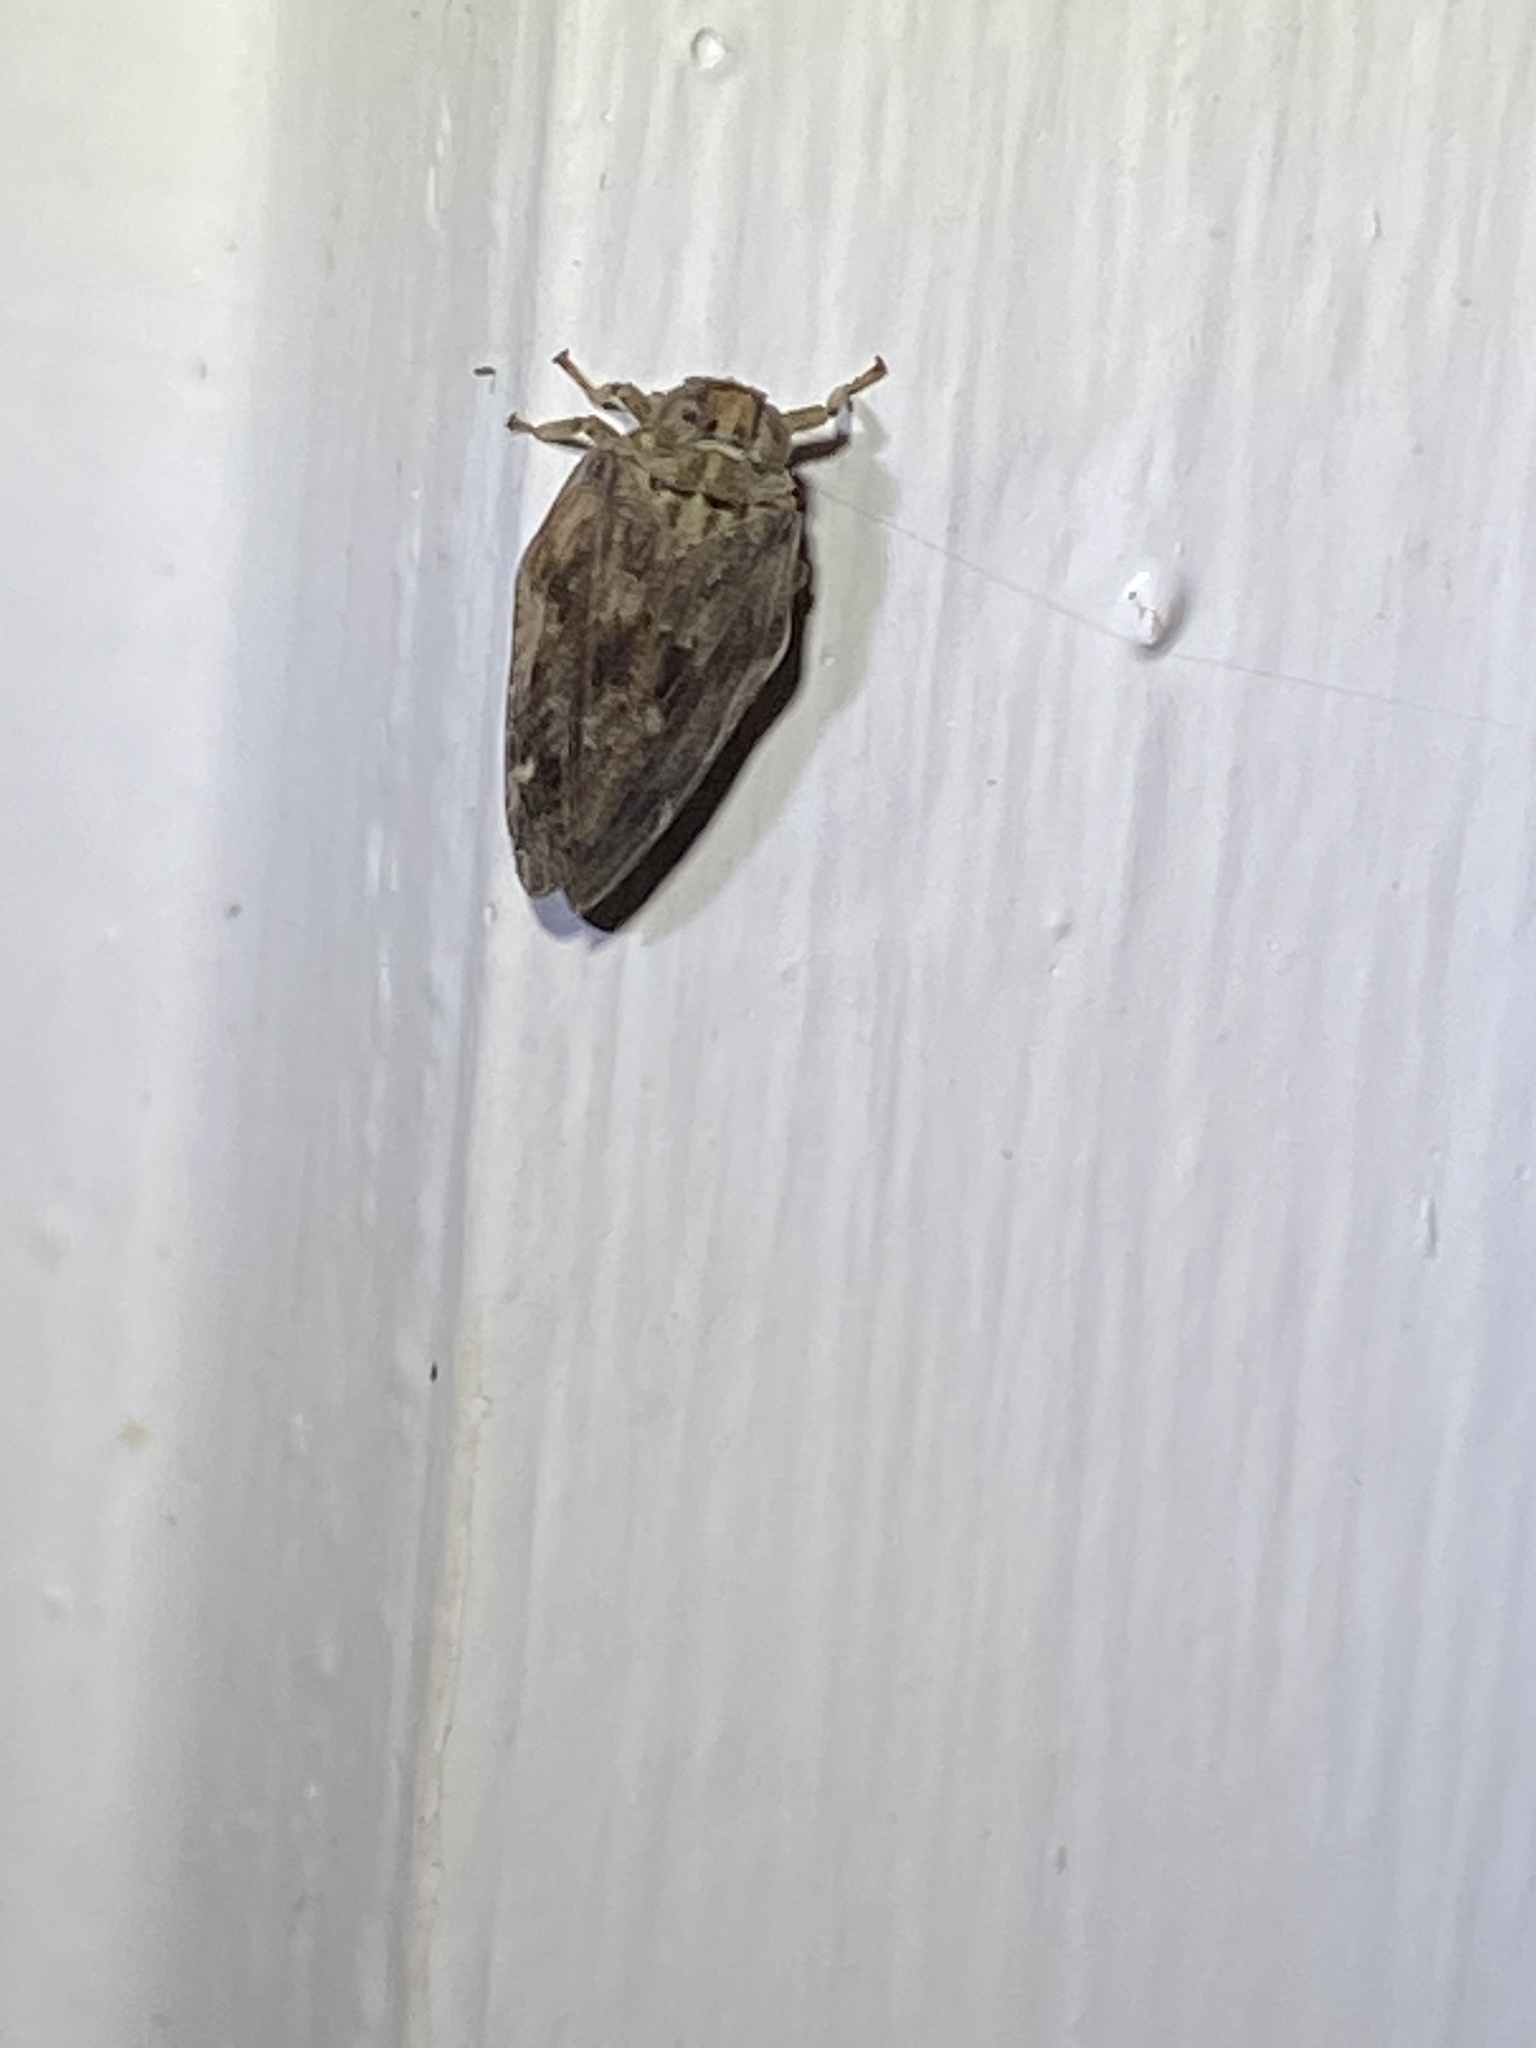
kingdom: Animalia
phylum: Arthropoda
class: Insecta
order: Hemiptera
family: Issidae
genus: Thionia
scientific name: Thionia bullata
